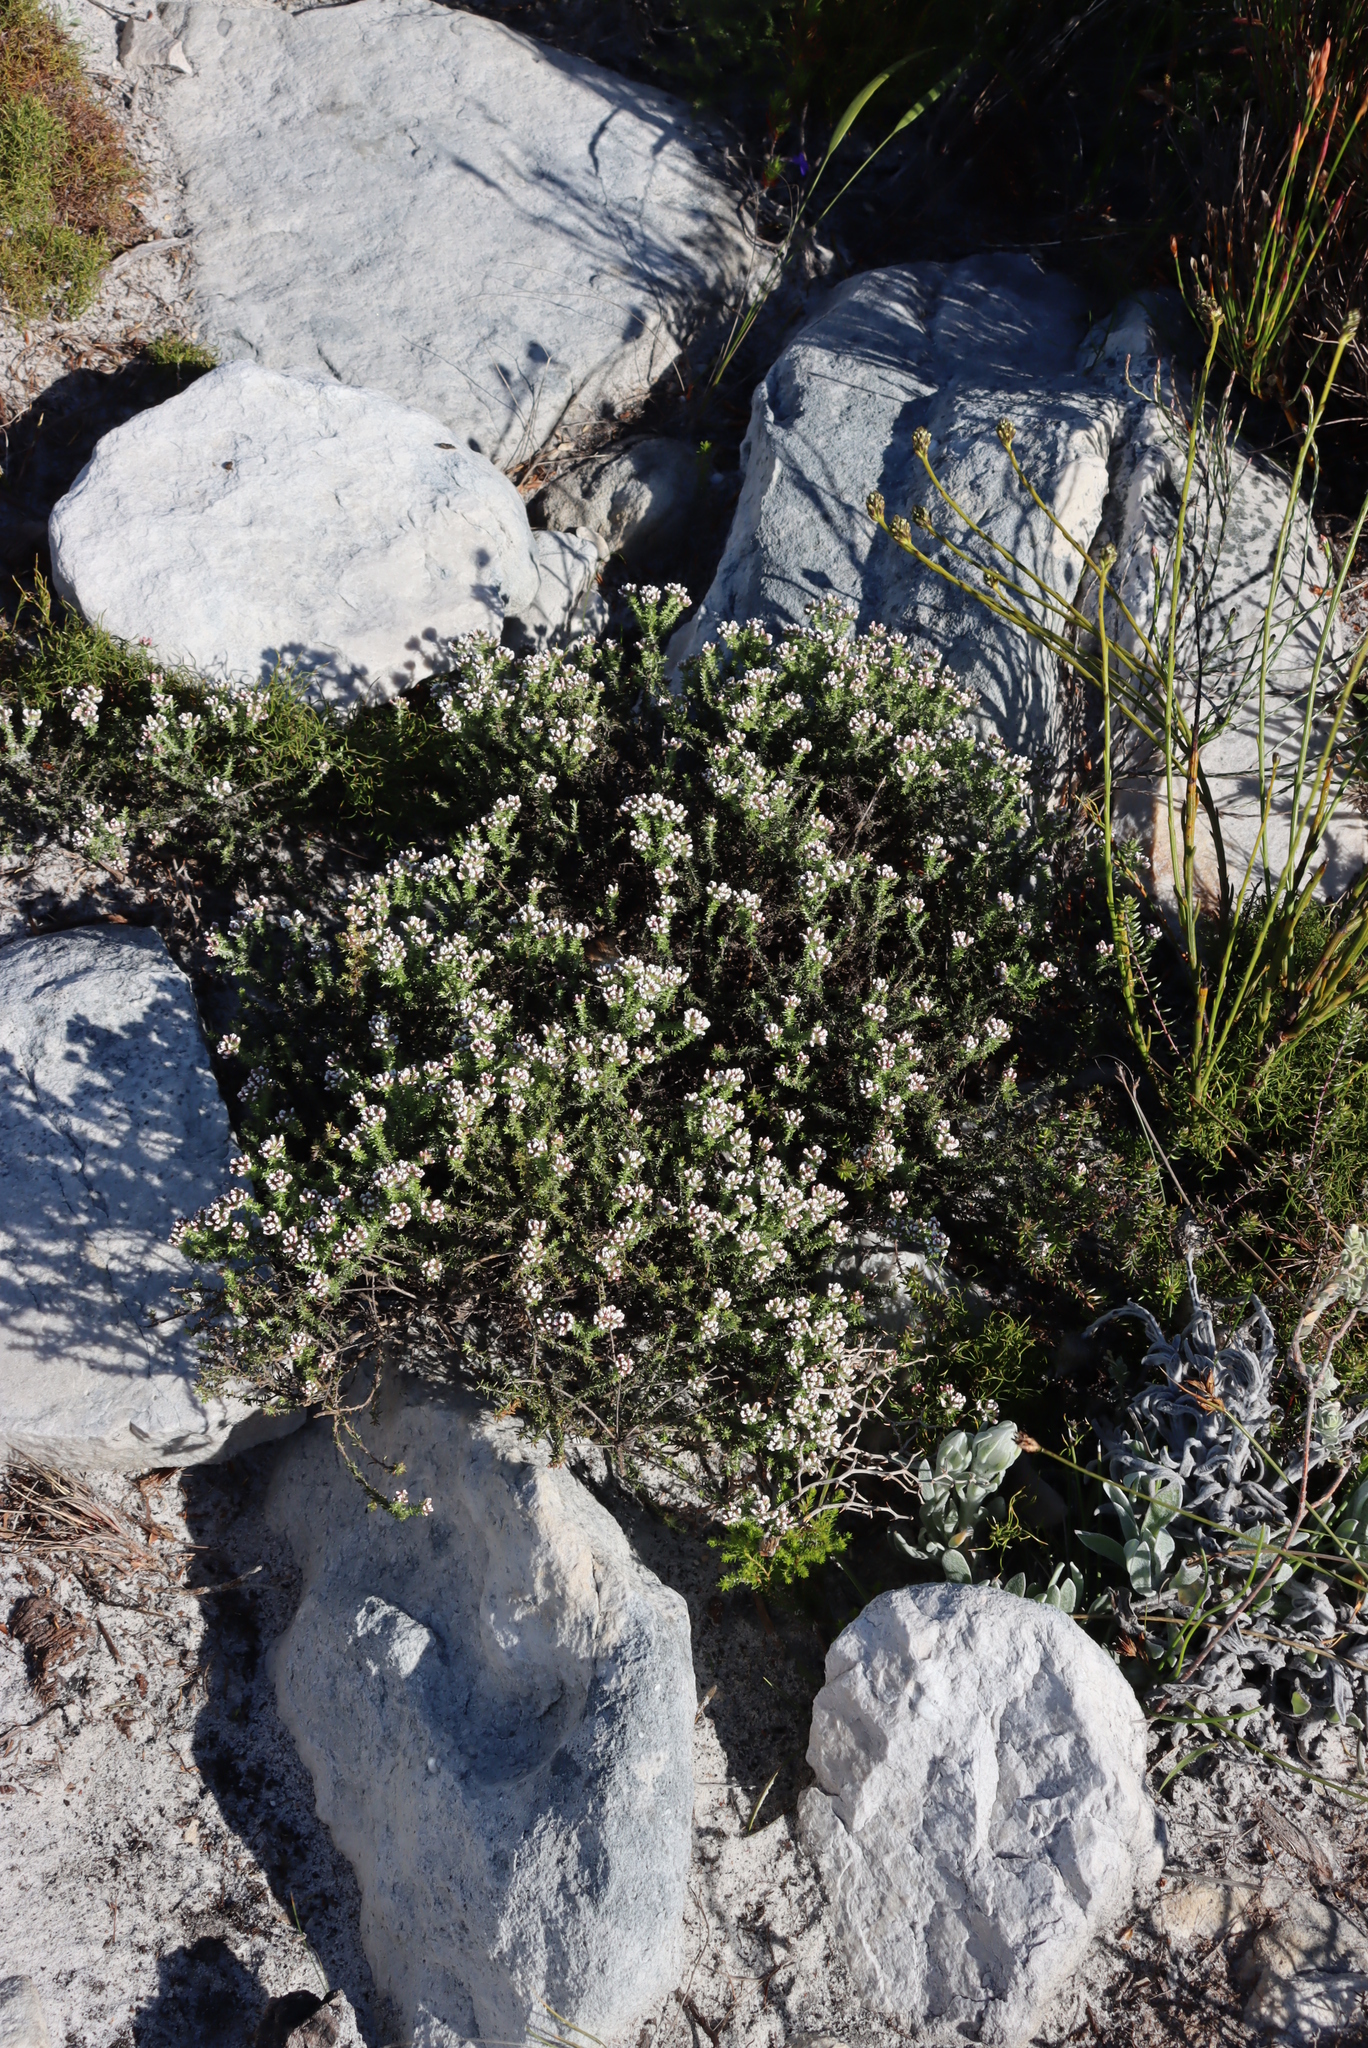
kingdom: Plantae
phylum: Tracheophyta
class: Magnoliopsida
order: Asterales
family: Asteraceae
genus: Metalasia
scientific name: Metalasia brevifolia
